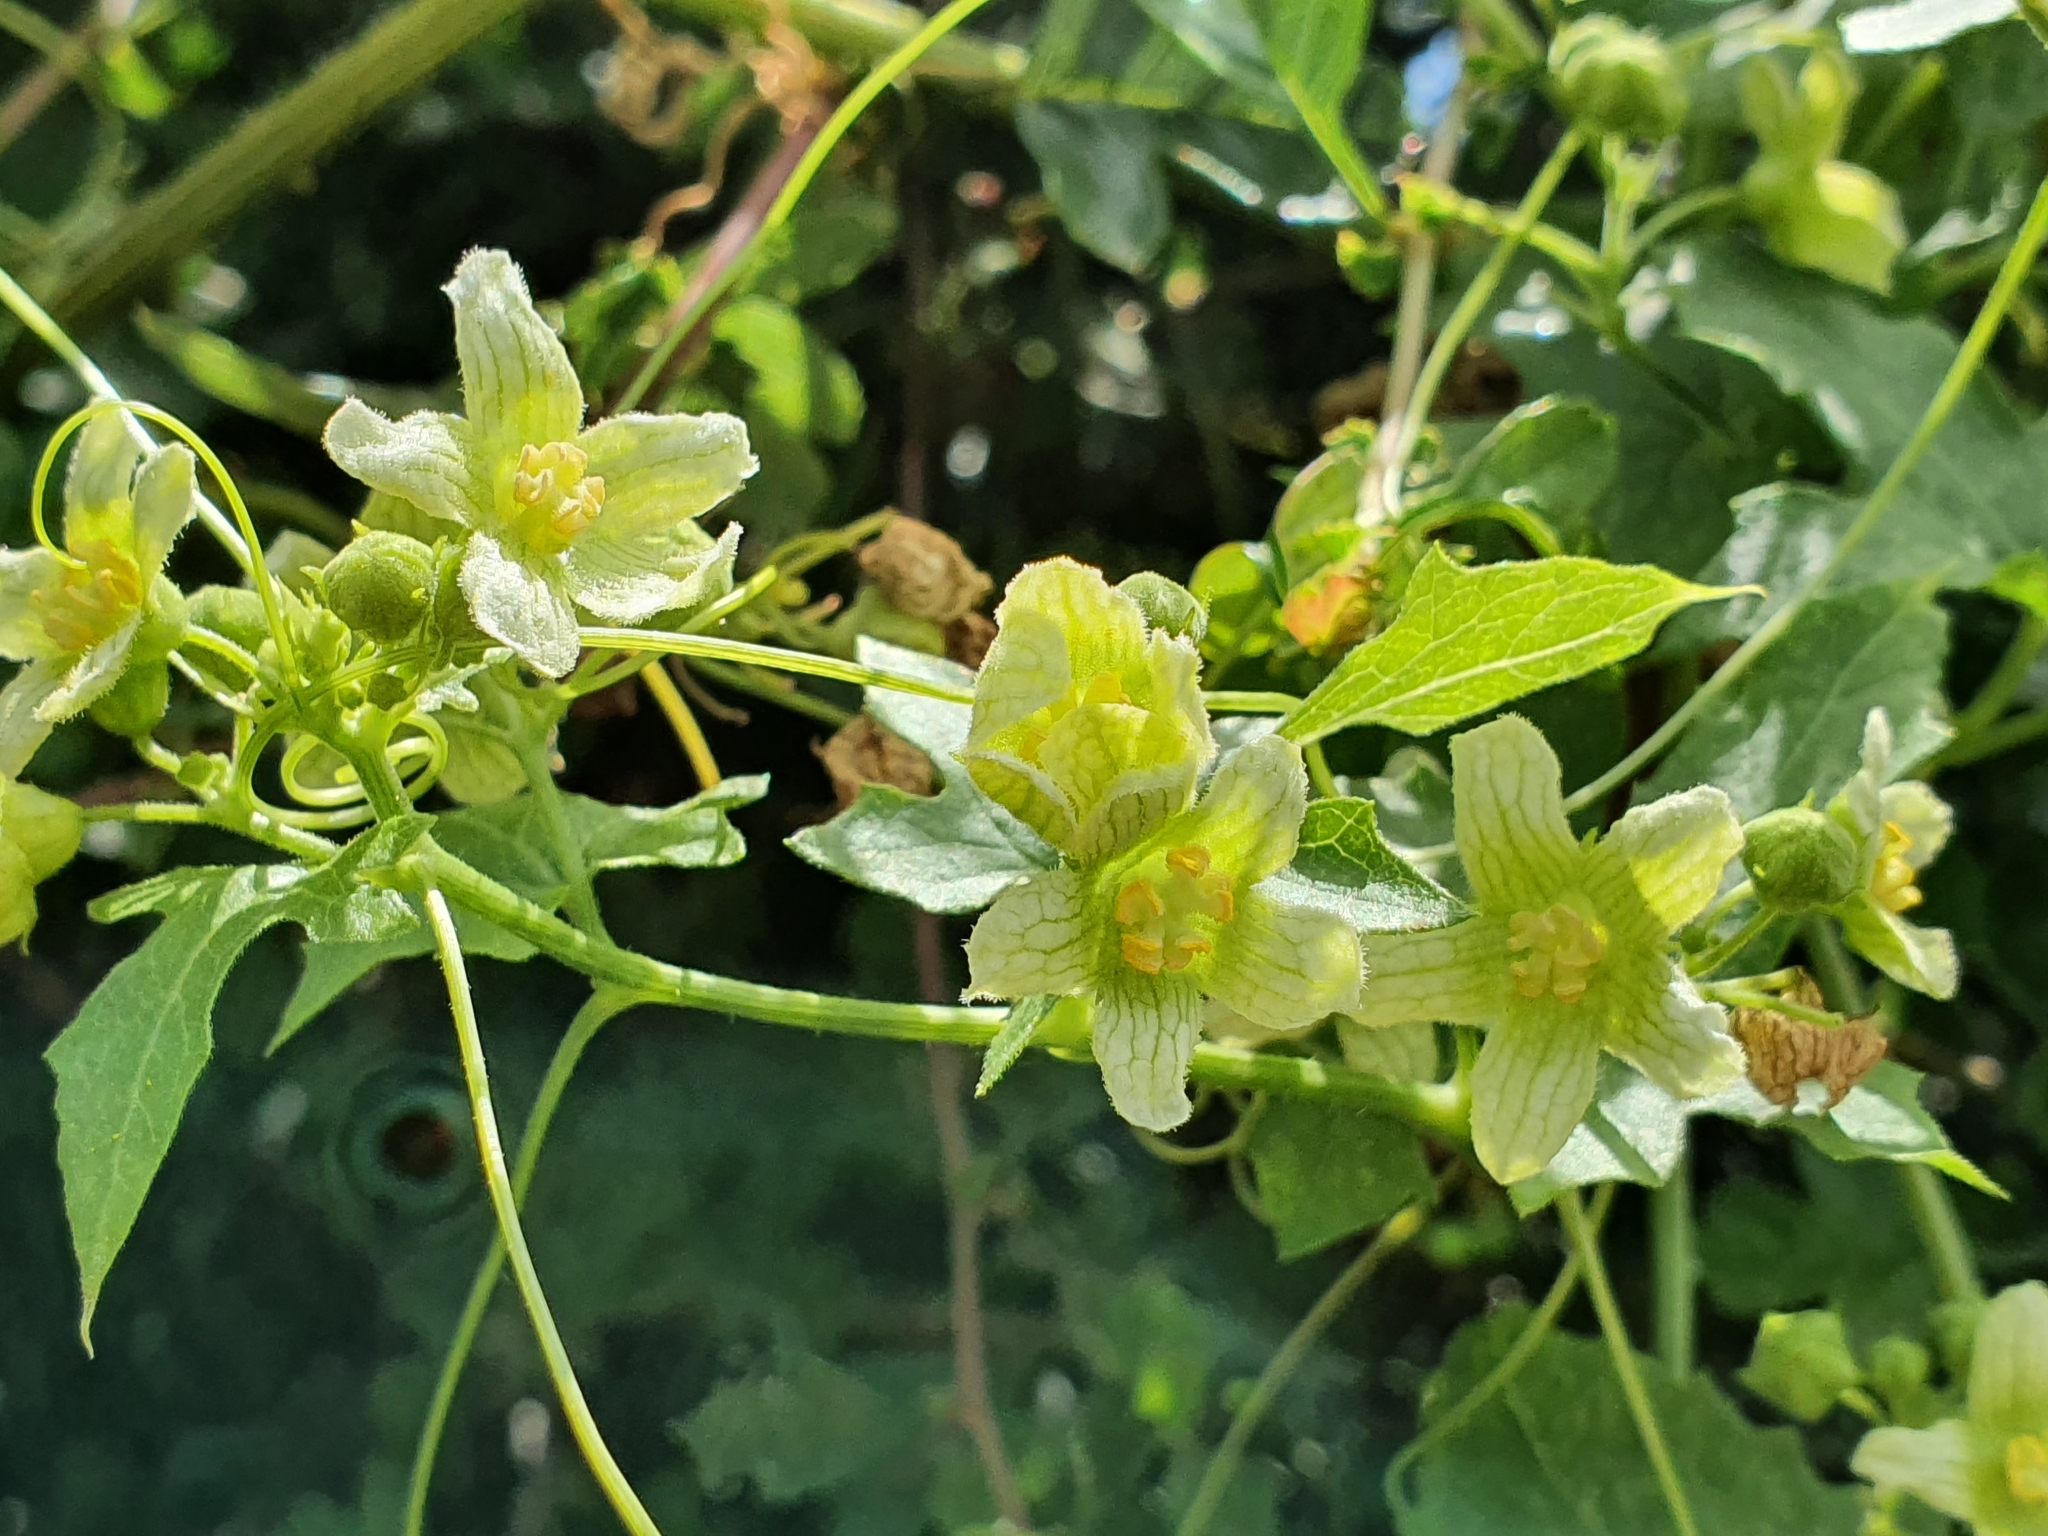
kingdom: Plantae
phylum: Tracheophyta
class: Magnoliopsida
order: Cucurbitales
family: Cucurbitaceae
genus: Bryonia
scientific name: Bryonia cretica
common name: Cretan bryony
